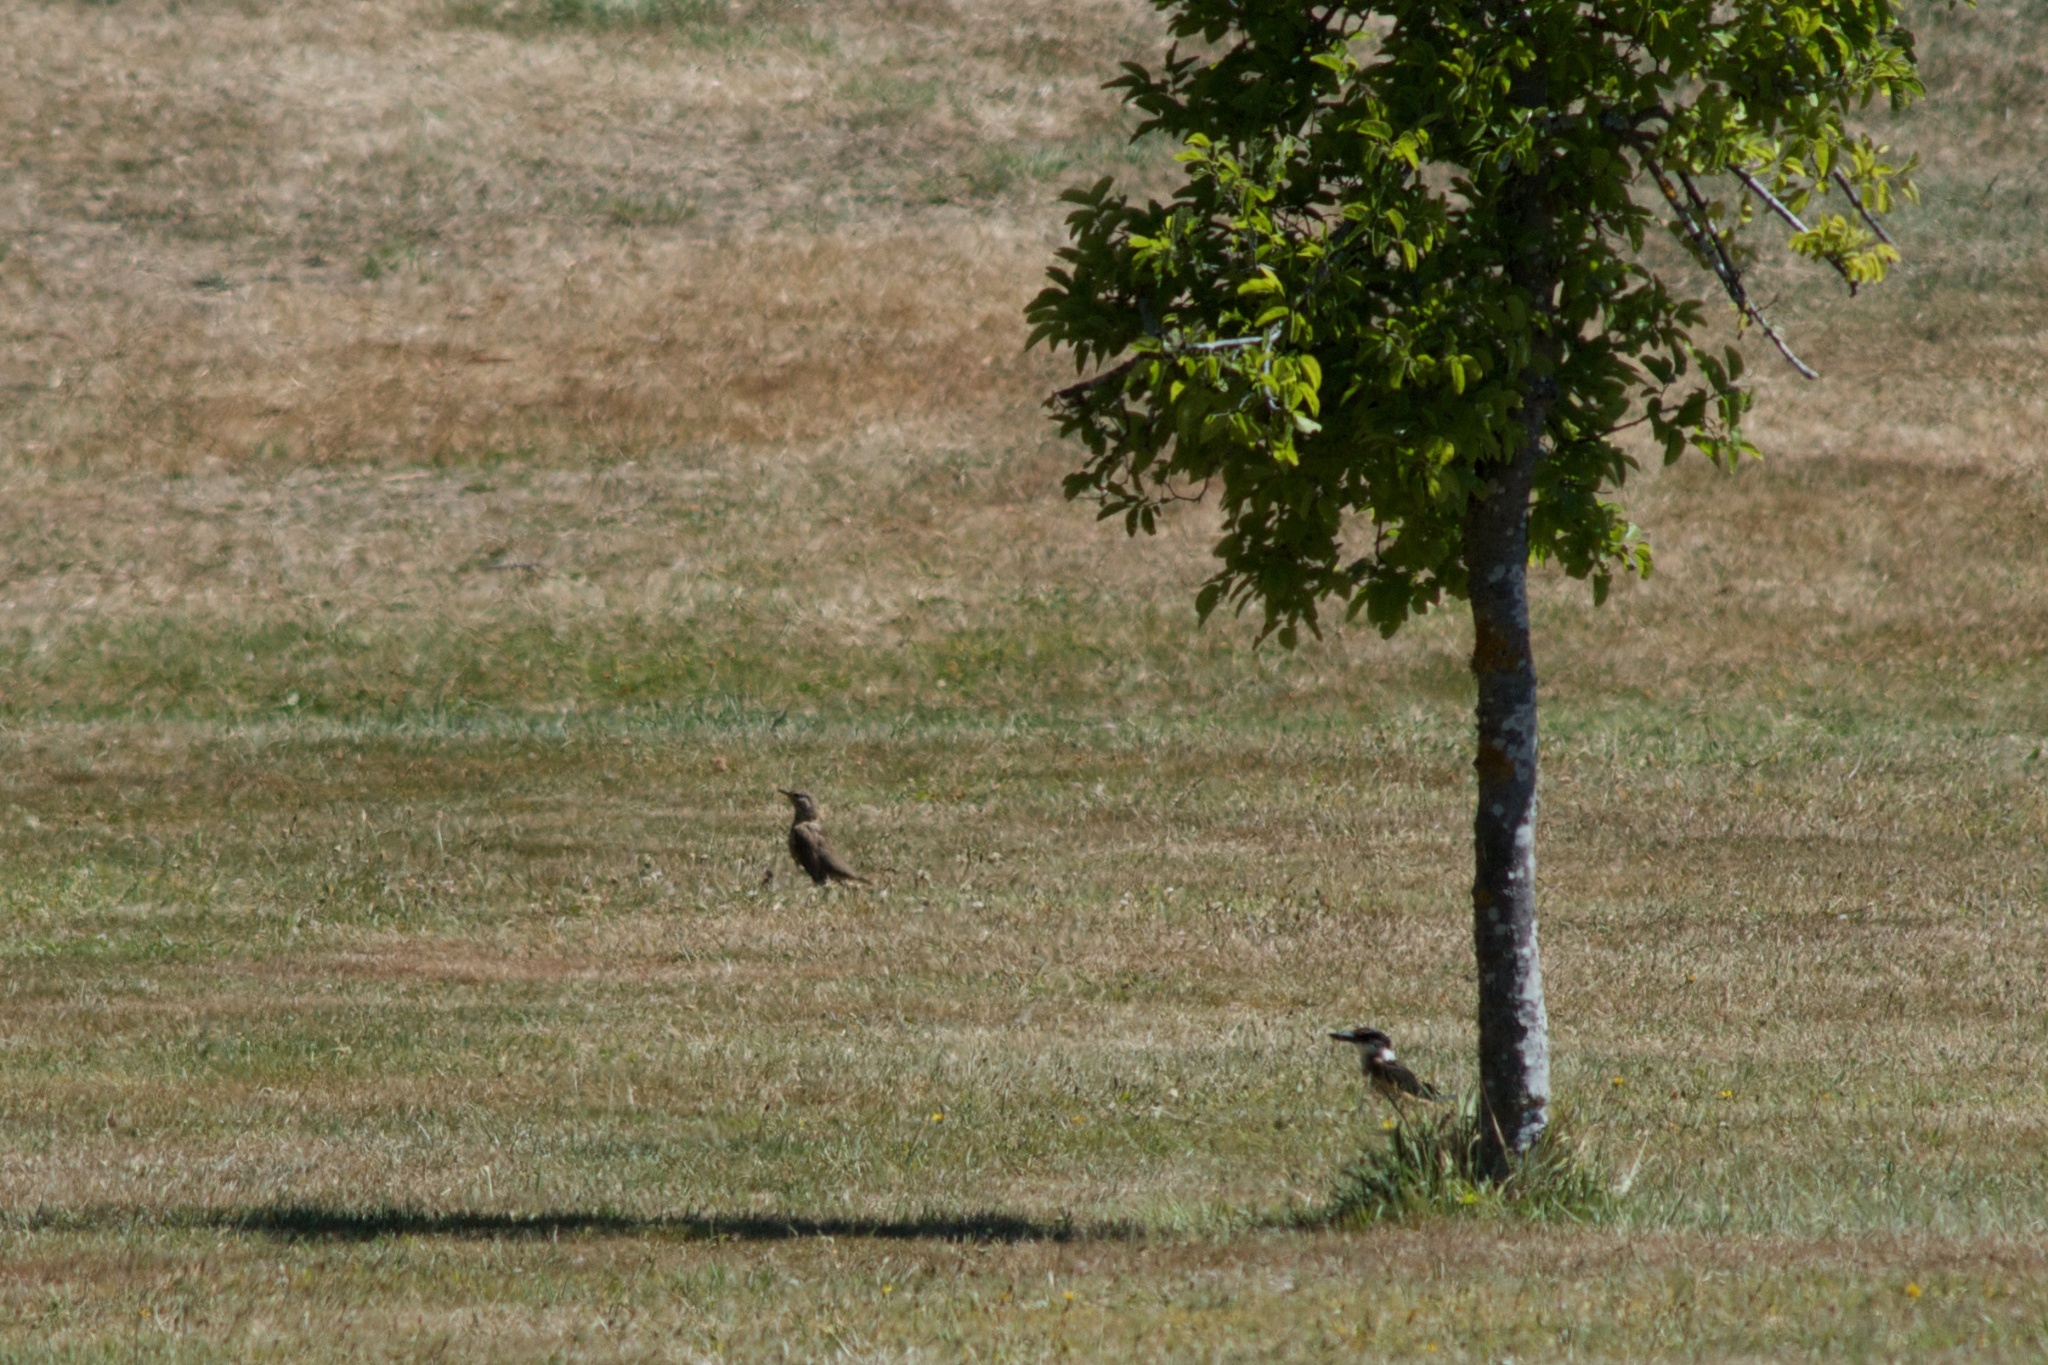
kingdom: Animalia
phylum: Chordata
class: Aves
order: Coraciiformes
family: Alcedinidae
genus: Todiramphus
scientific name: Todiramphus sanctus
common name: Sacred kingfisher
